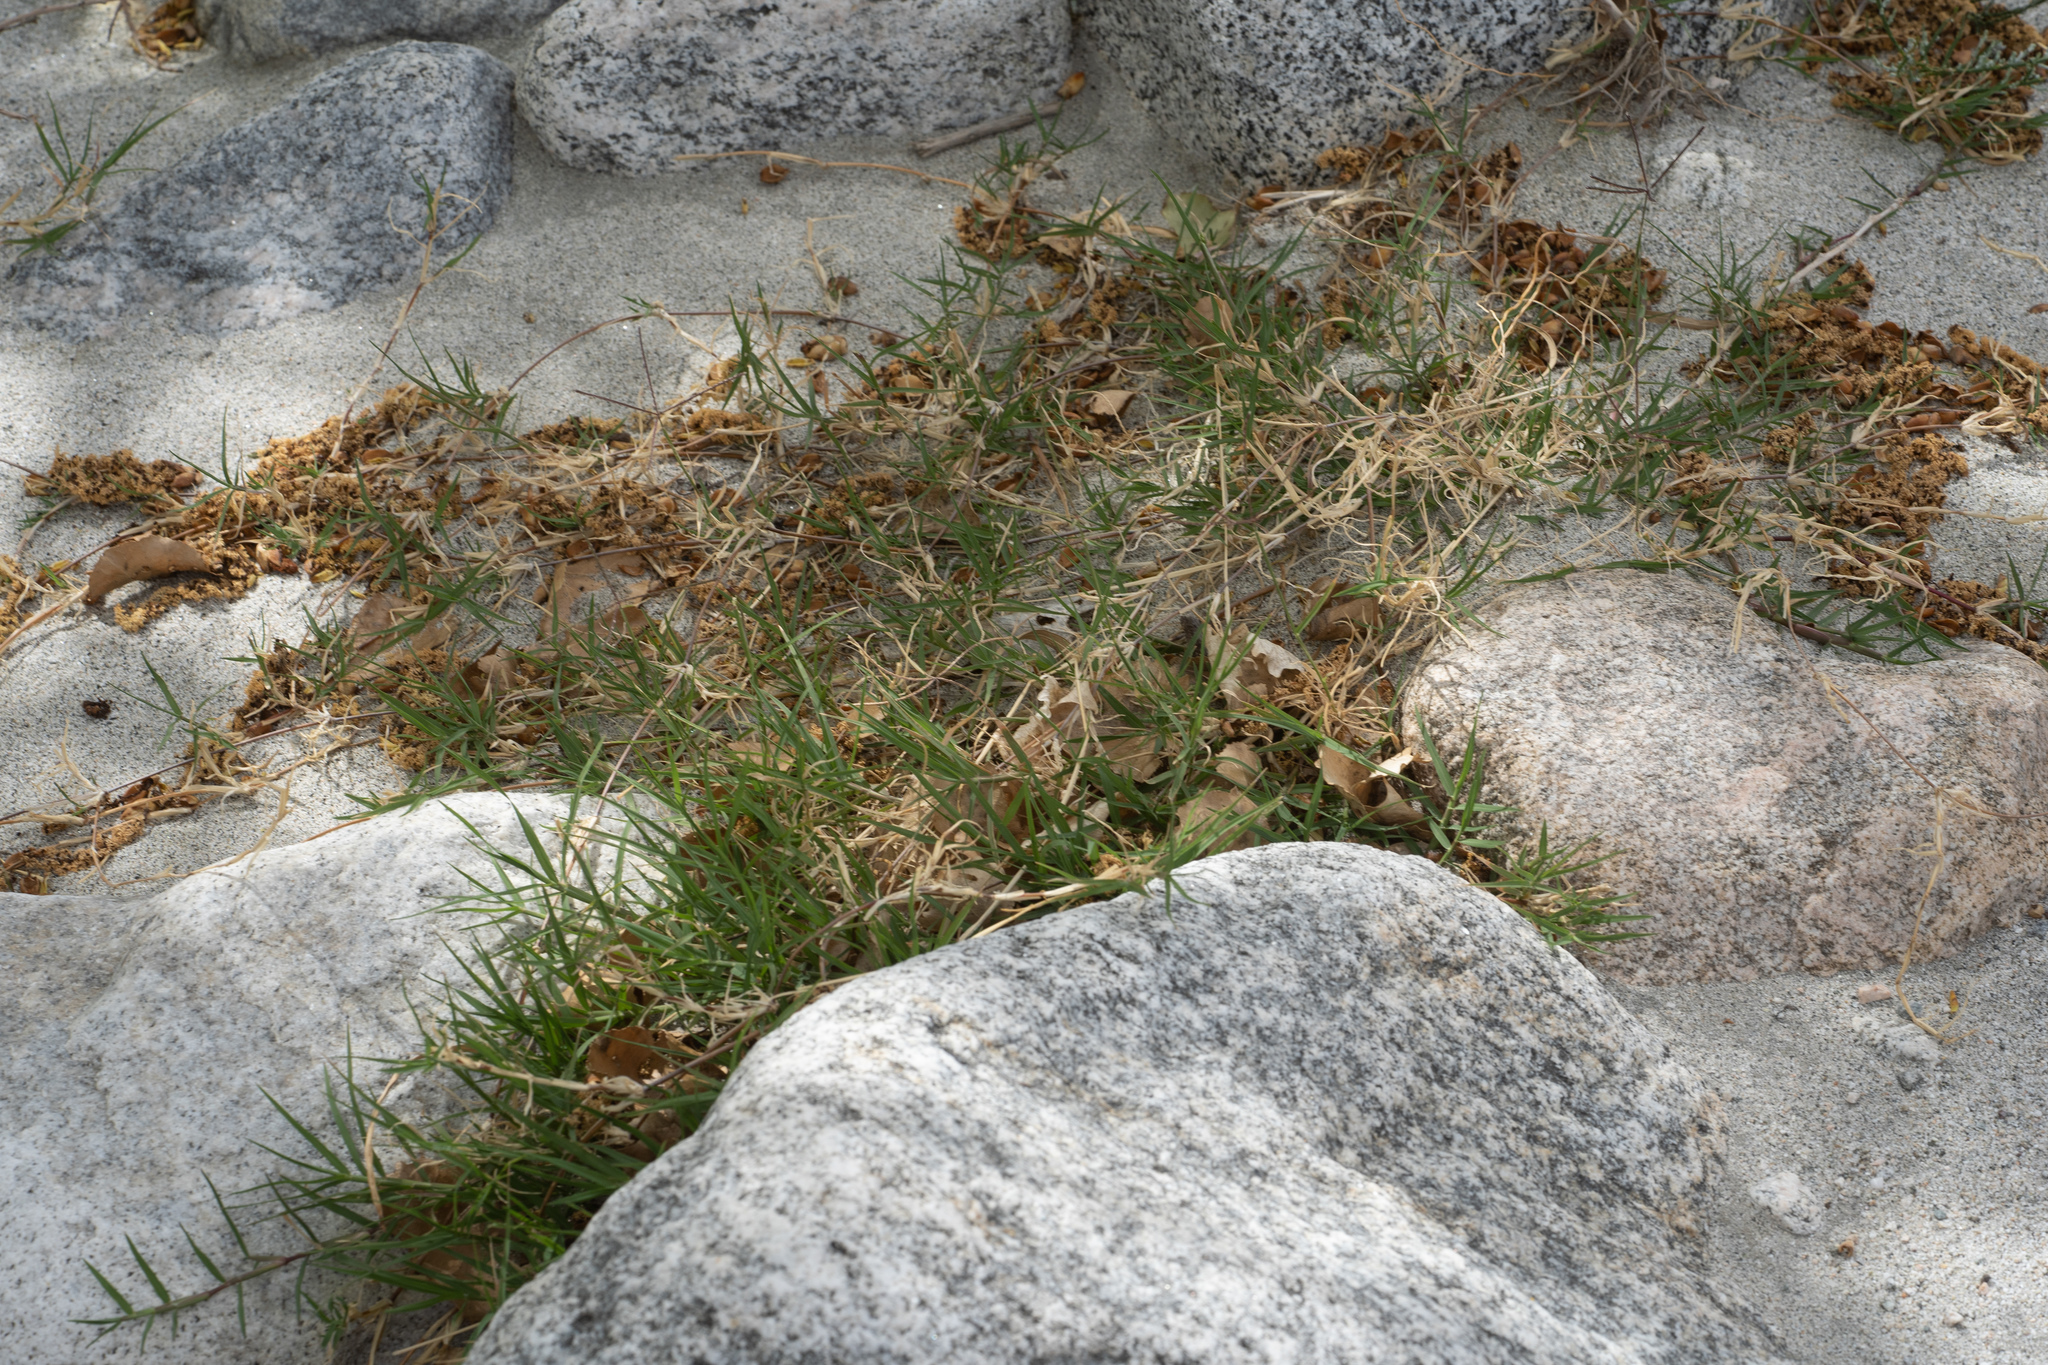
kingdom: Plantae
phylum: Tracheophyta
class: Liliopsida
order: Poales
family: Poaceae
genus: Cynodon
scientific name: Cynodon dactylon
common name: Bermuda grass
